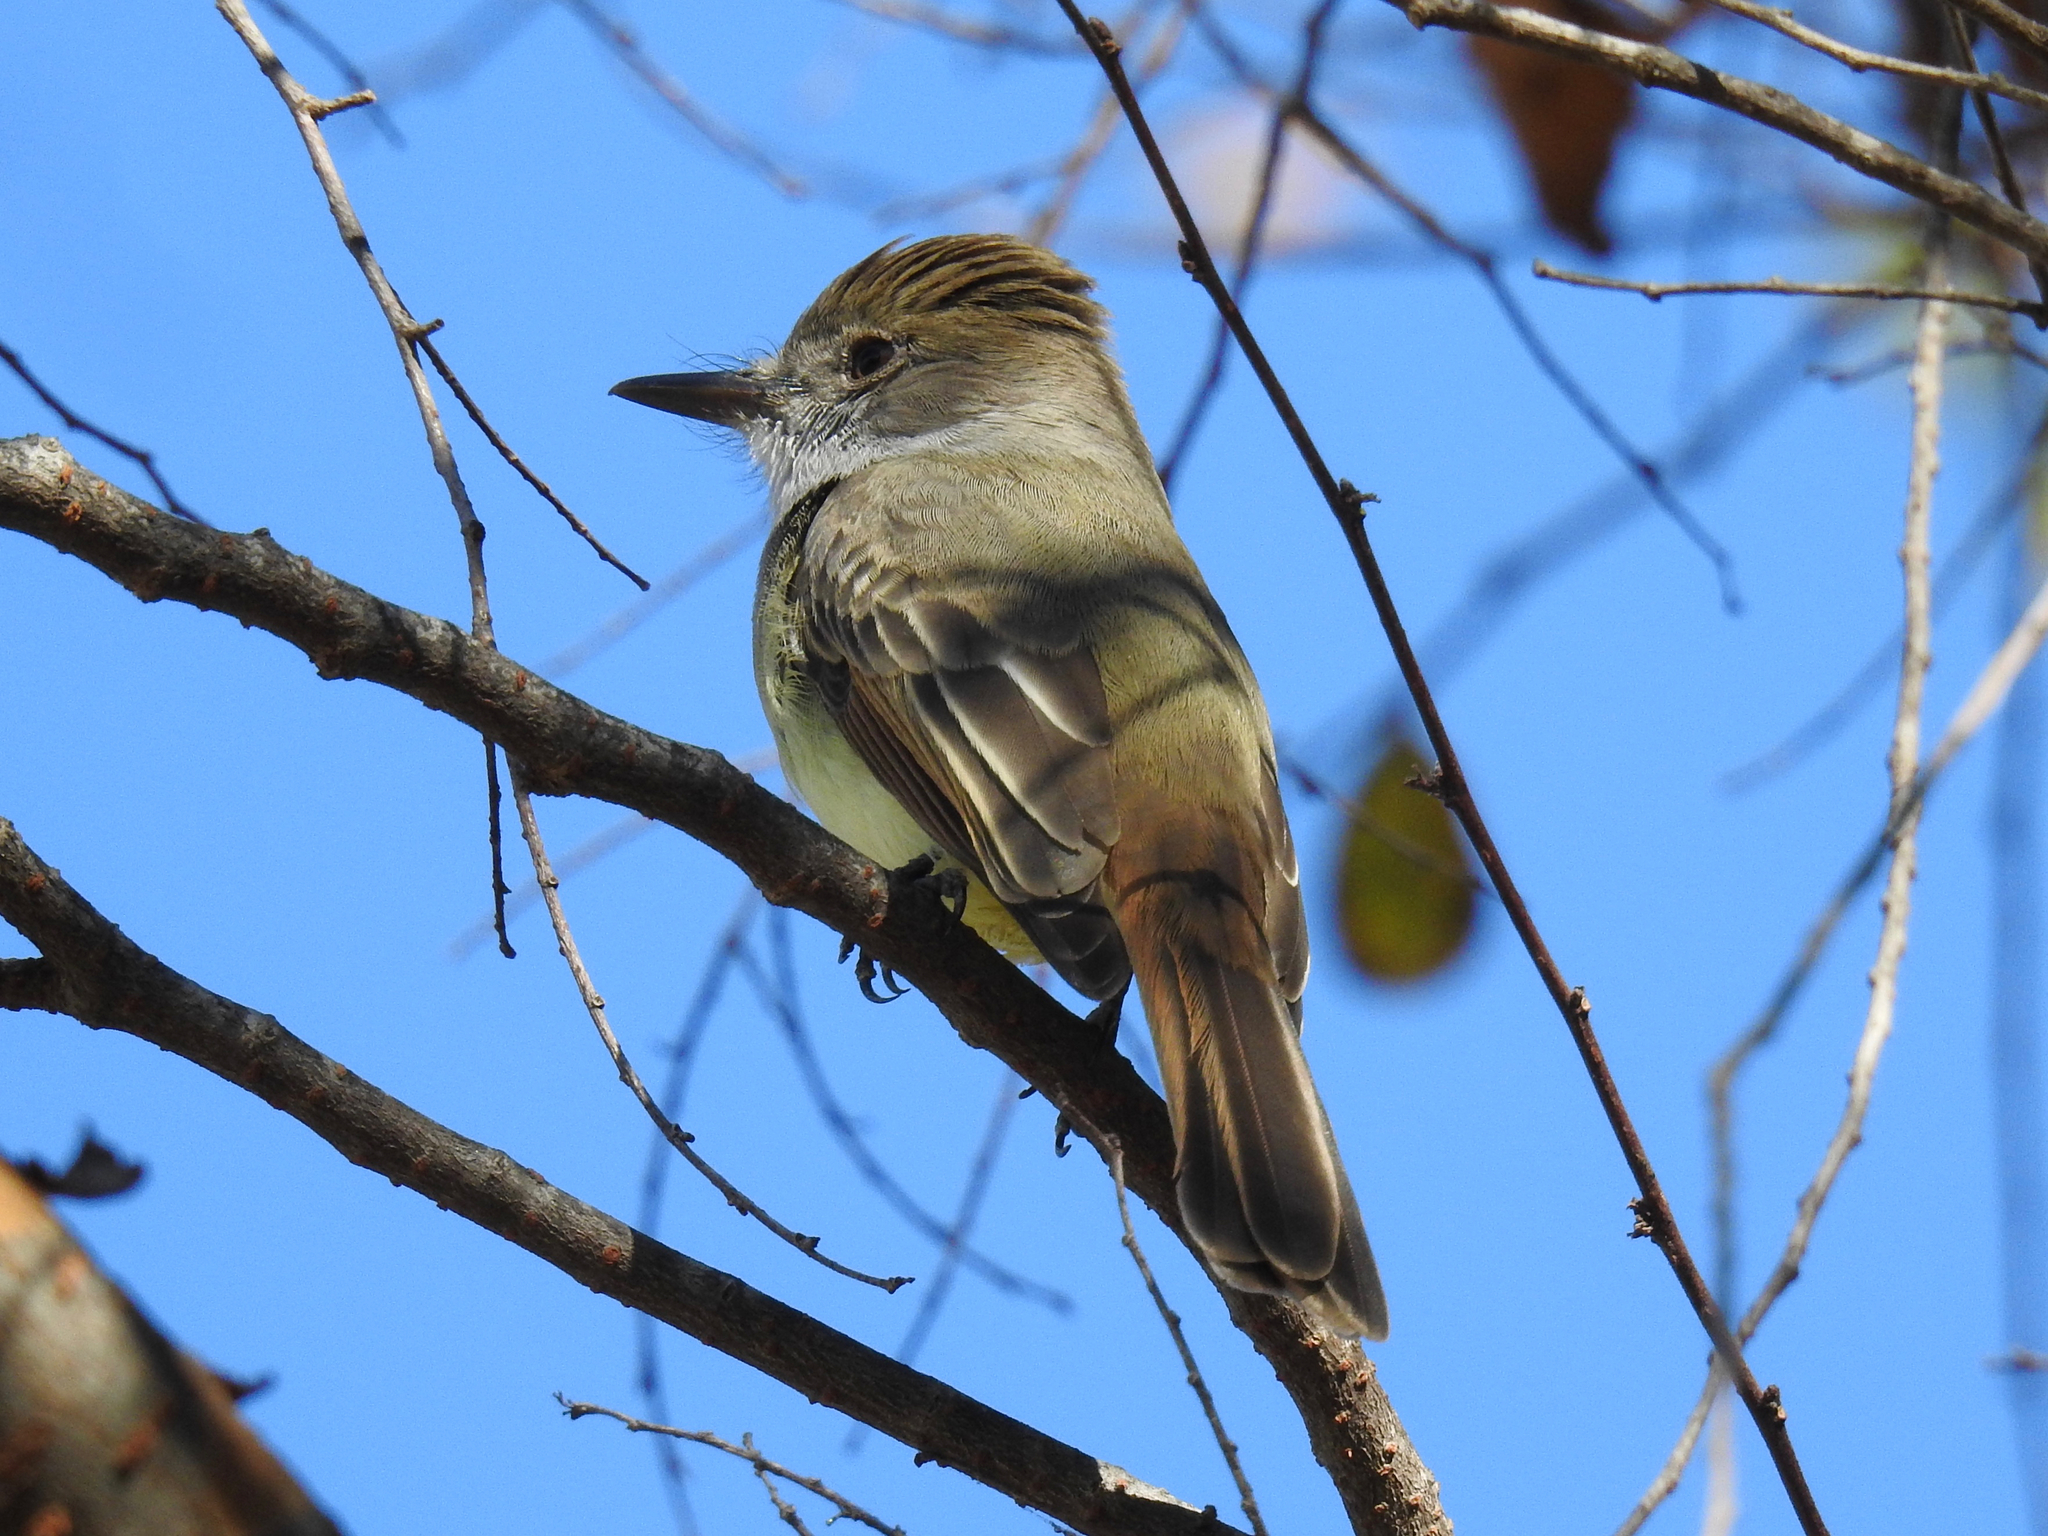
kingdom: Animalia
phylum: Chordata
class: Aves
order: Passeriformes
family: Tyrannidae
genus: Myiarchus
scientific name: Myiarchus tuberculifer
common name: Dusky-capped flycatcher
